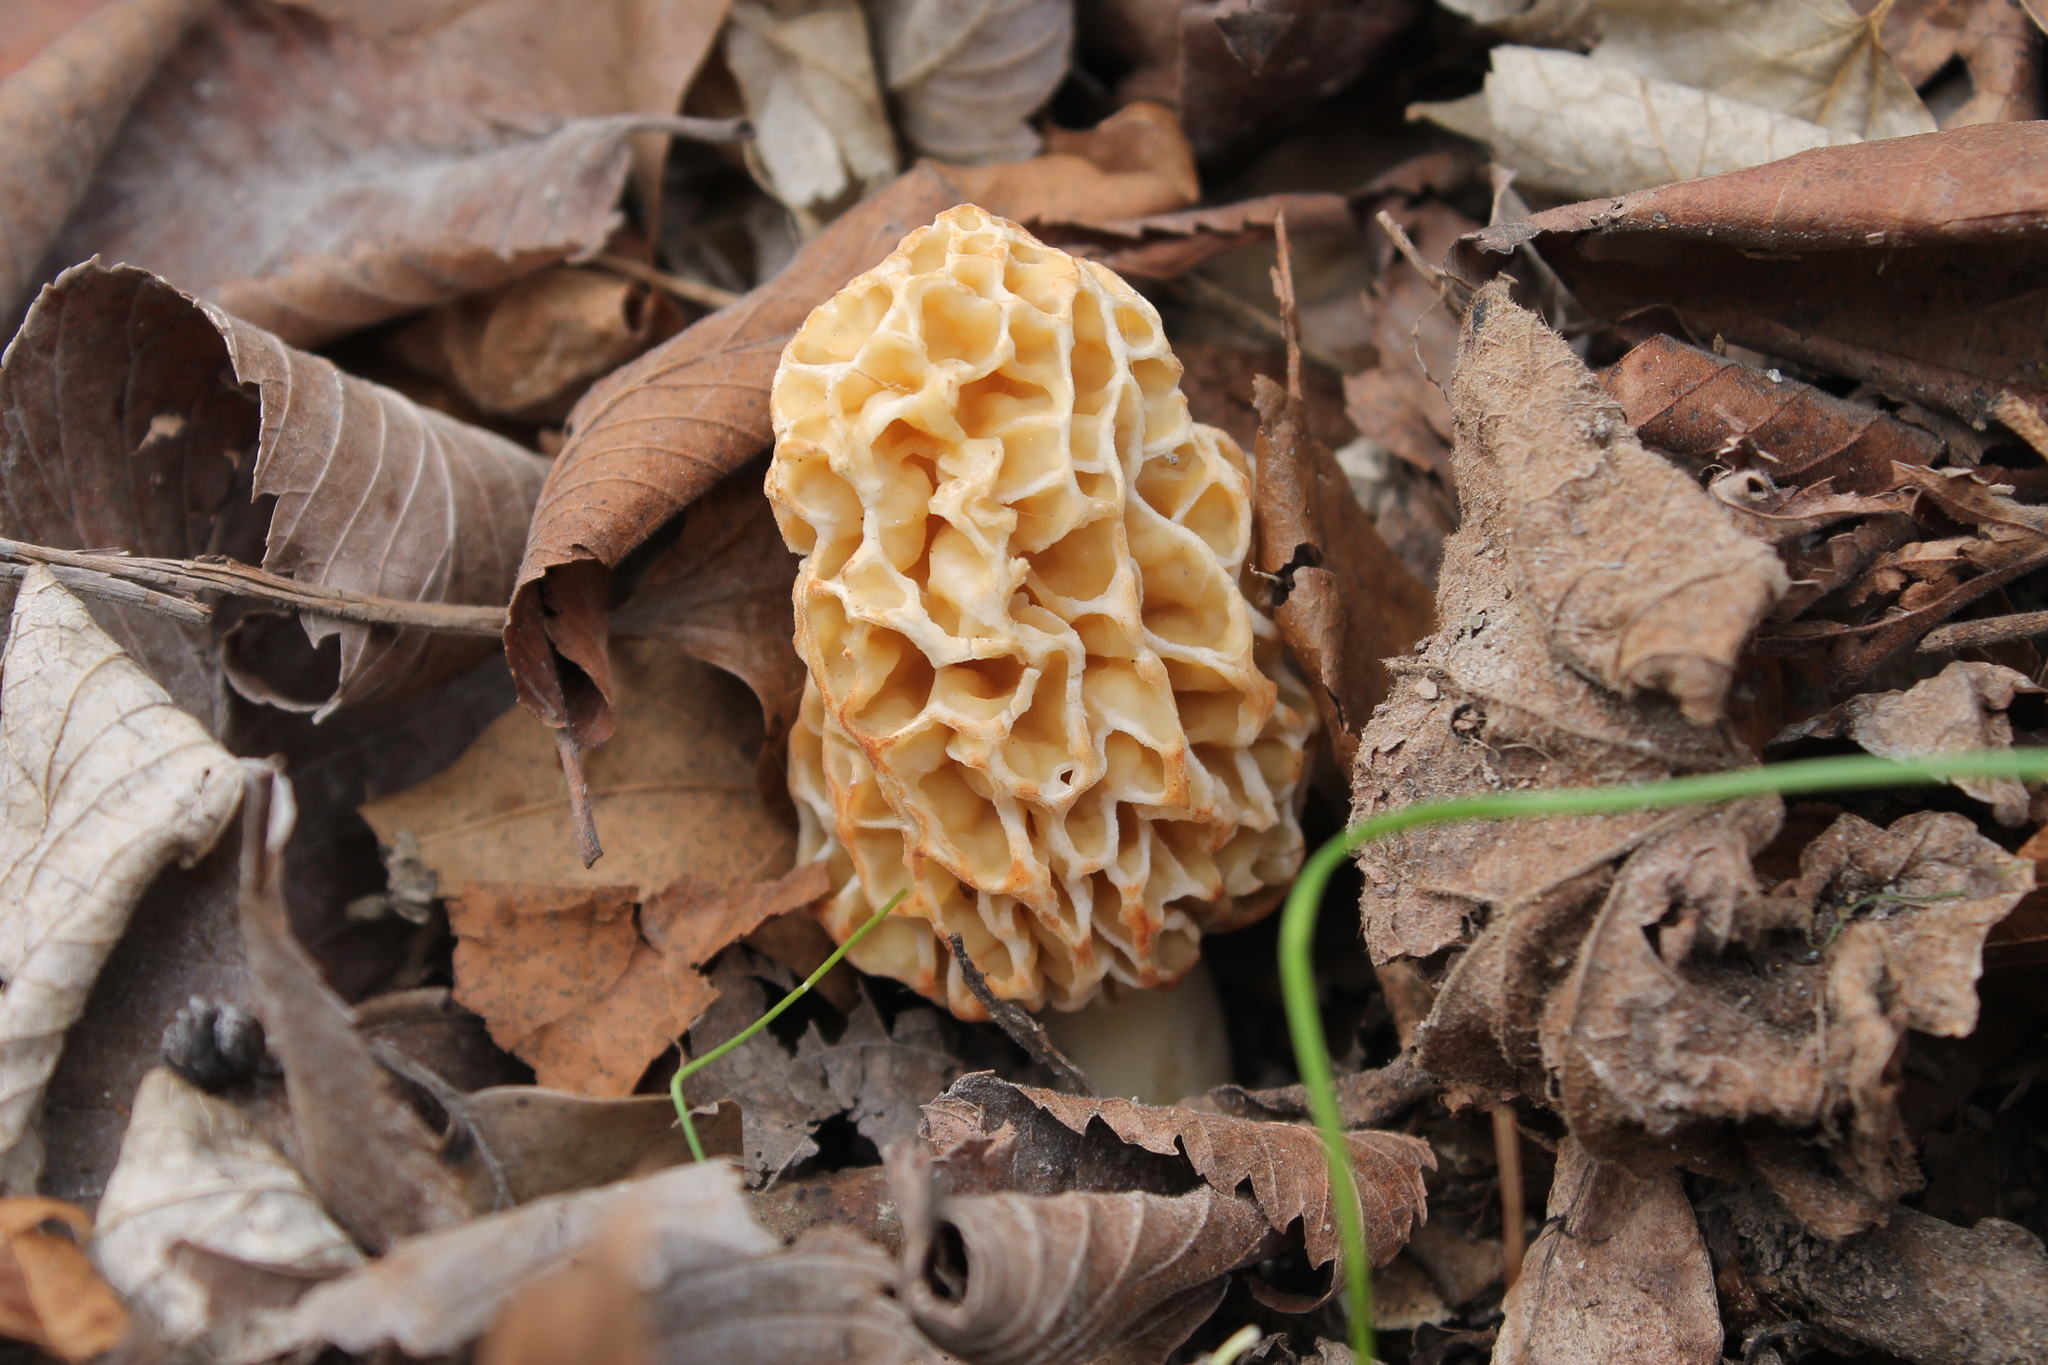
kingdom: Fungi
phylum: Ascomycota
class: Pezizomycetes
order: Pezizales
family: Morchellaceae
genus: Morchella
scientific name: Morchella americana
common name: White morel
